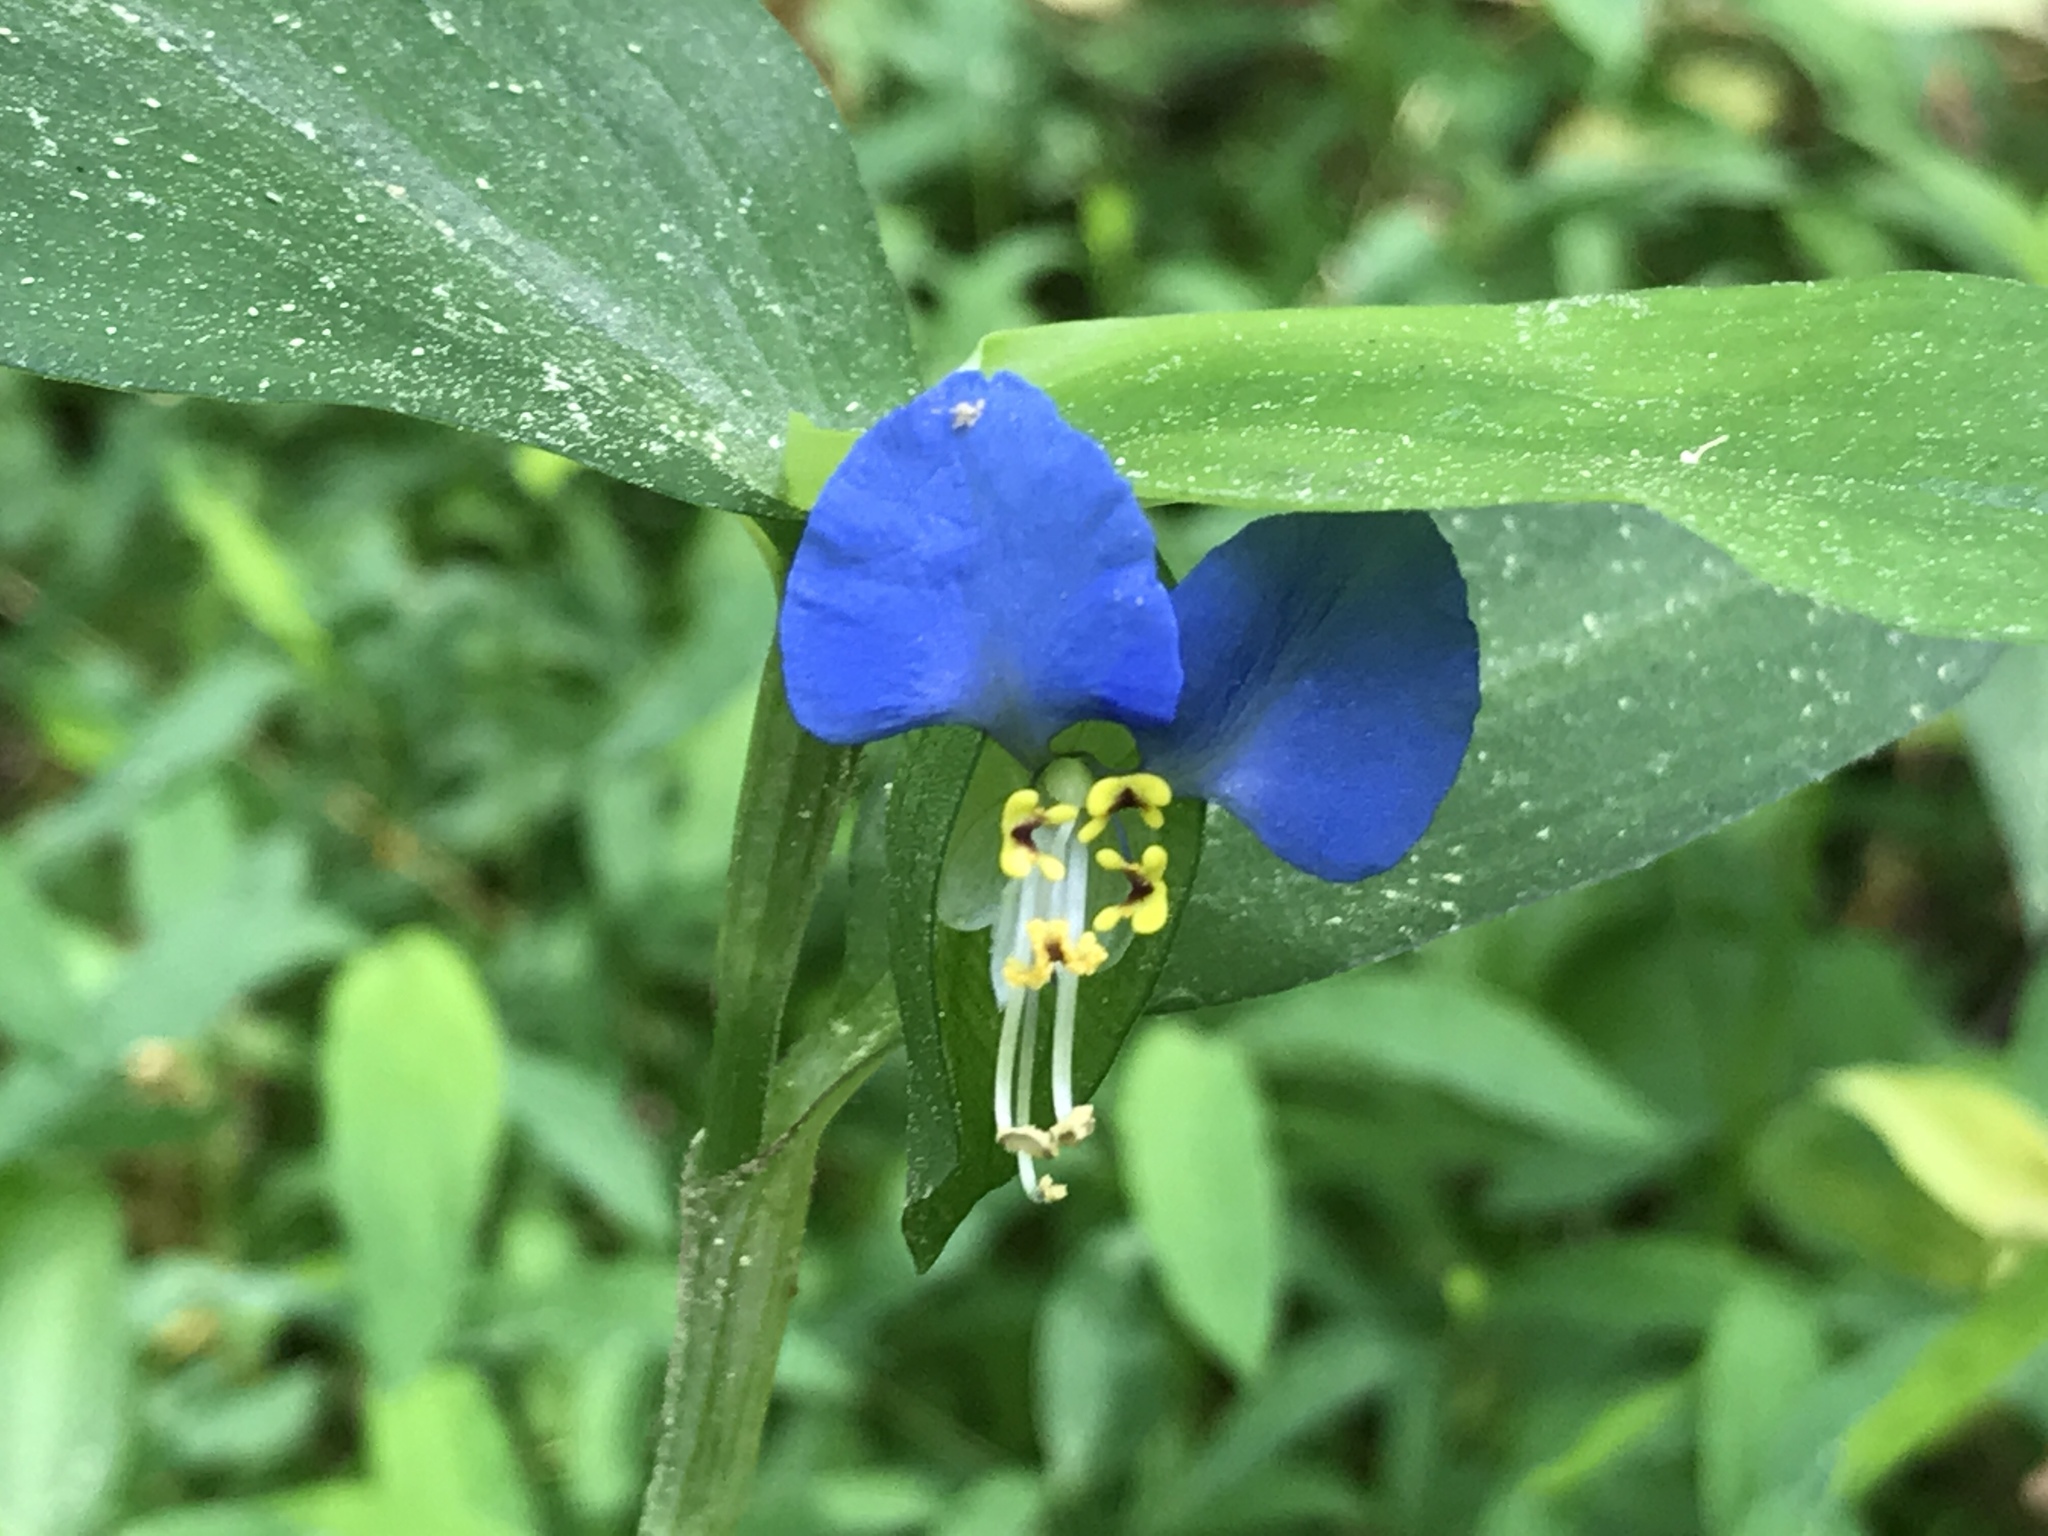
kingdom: Plantae
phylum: Tracheophyta
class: Liliopsida
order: Commelinales
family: Commelinaceae
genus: Commelina
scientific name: Commelina communis
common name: Asiatic dayflower
